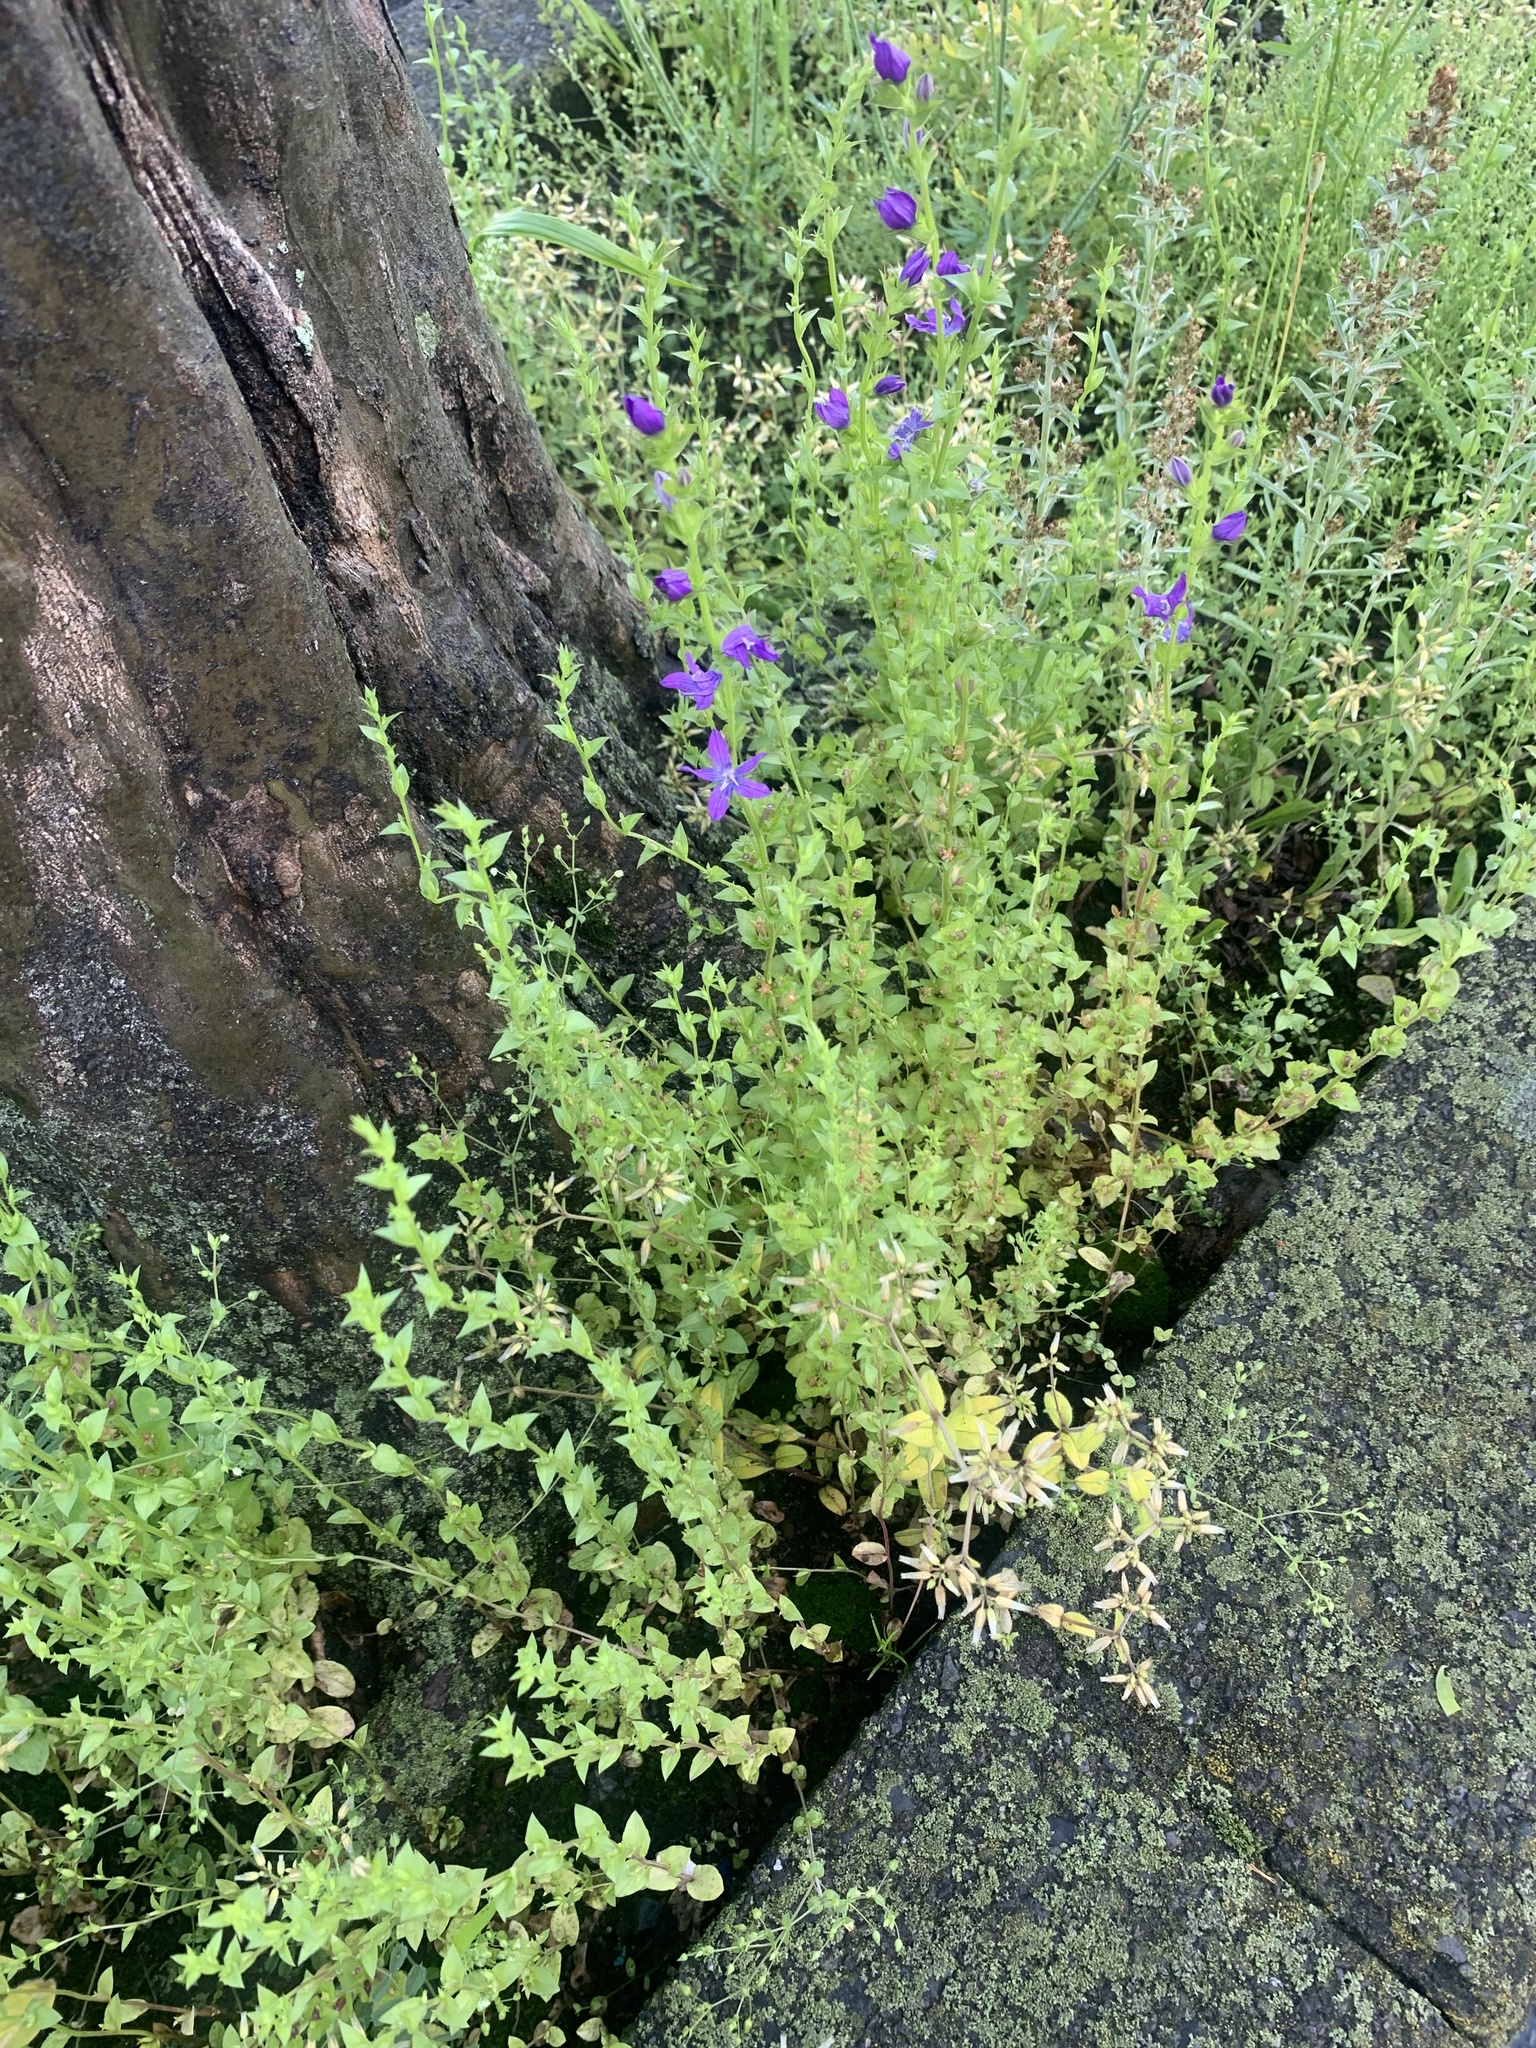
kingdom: Plantae
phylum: Tracheophyta
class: Magnoliopsida
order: Asterales
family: Campanulaceae
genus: Triodanis
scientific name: Triodanis biflora
